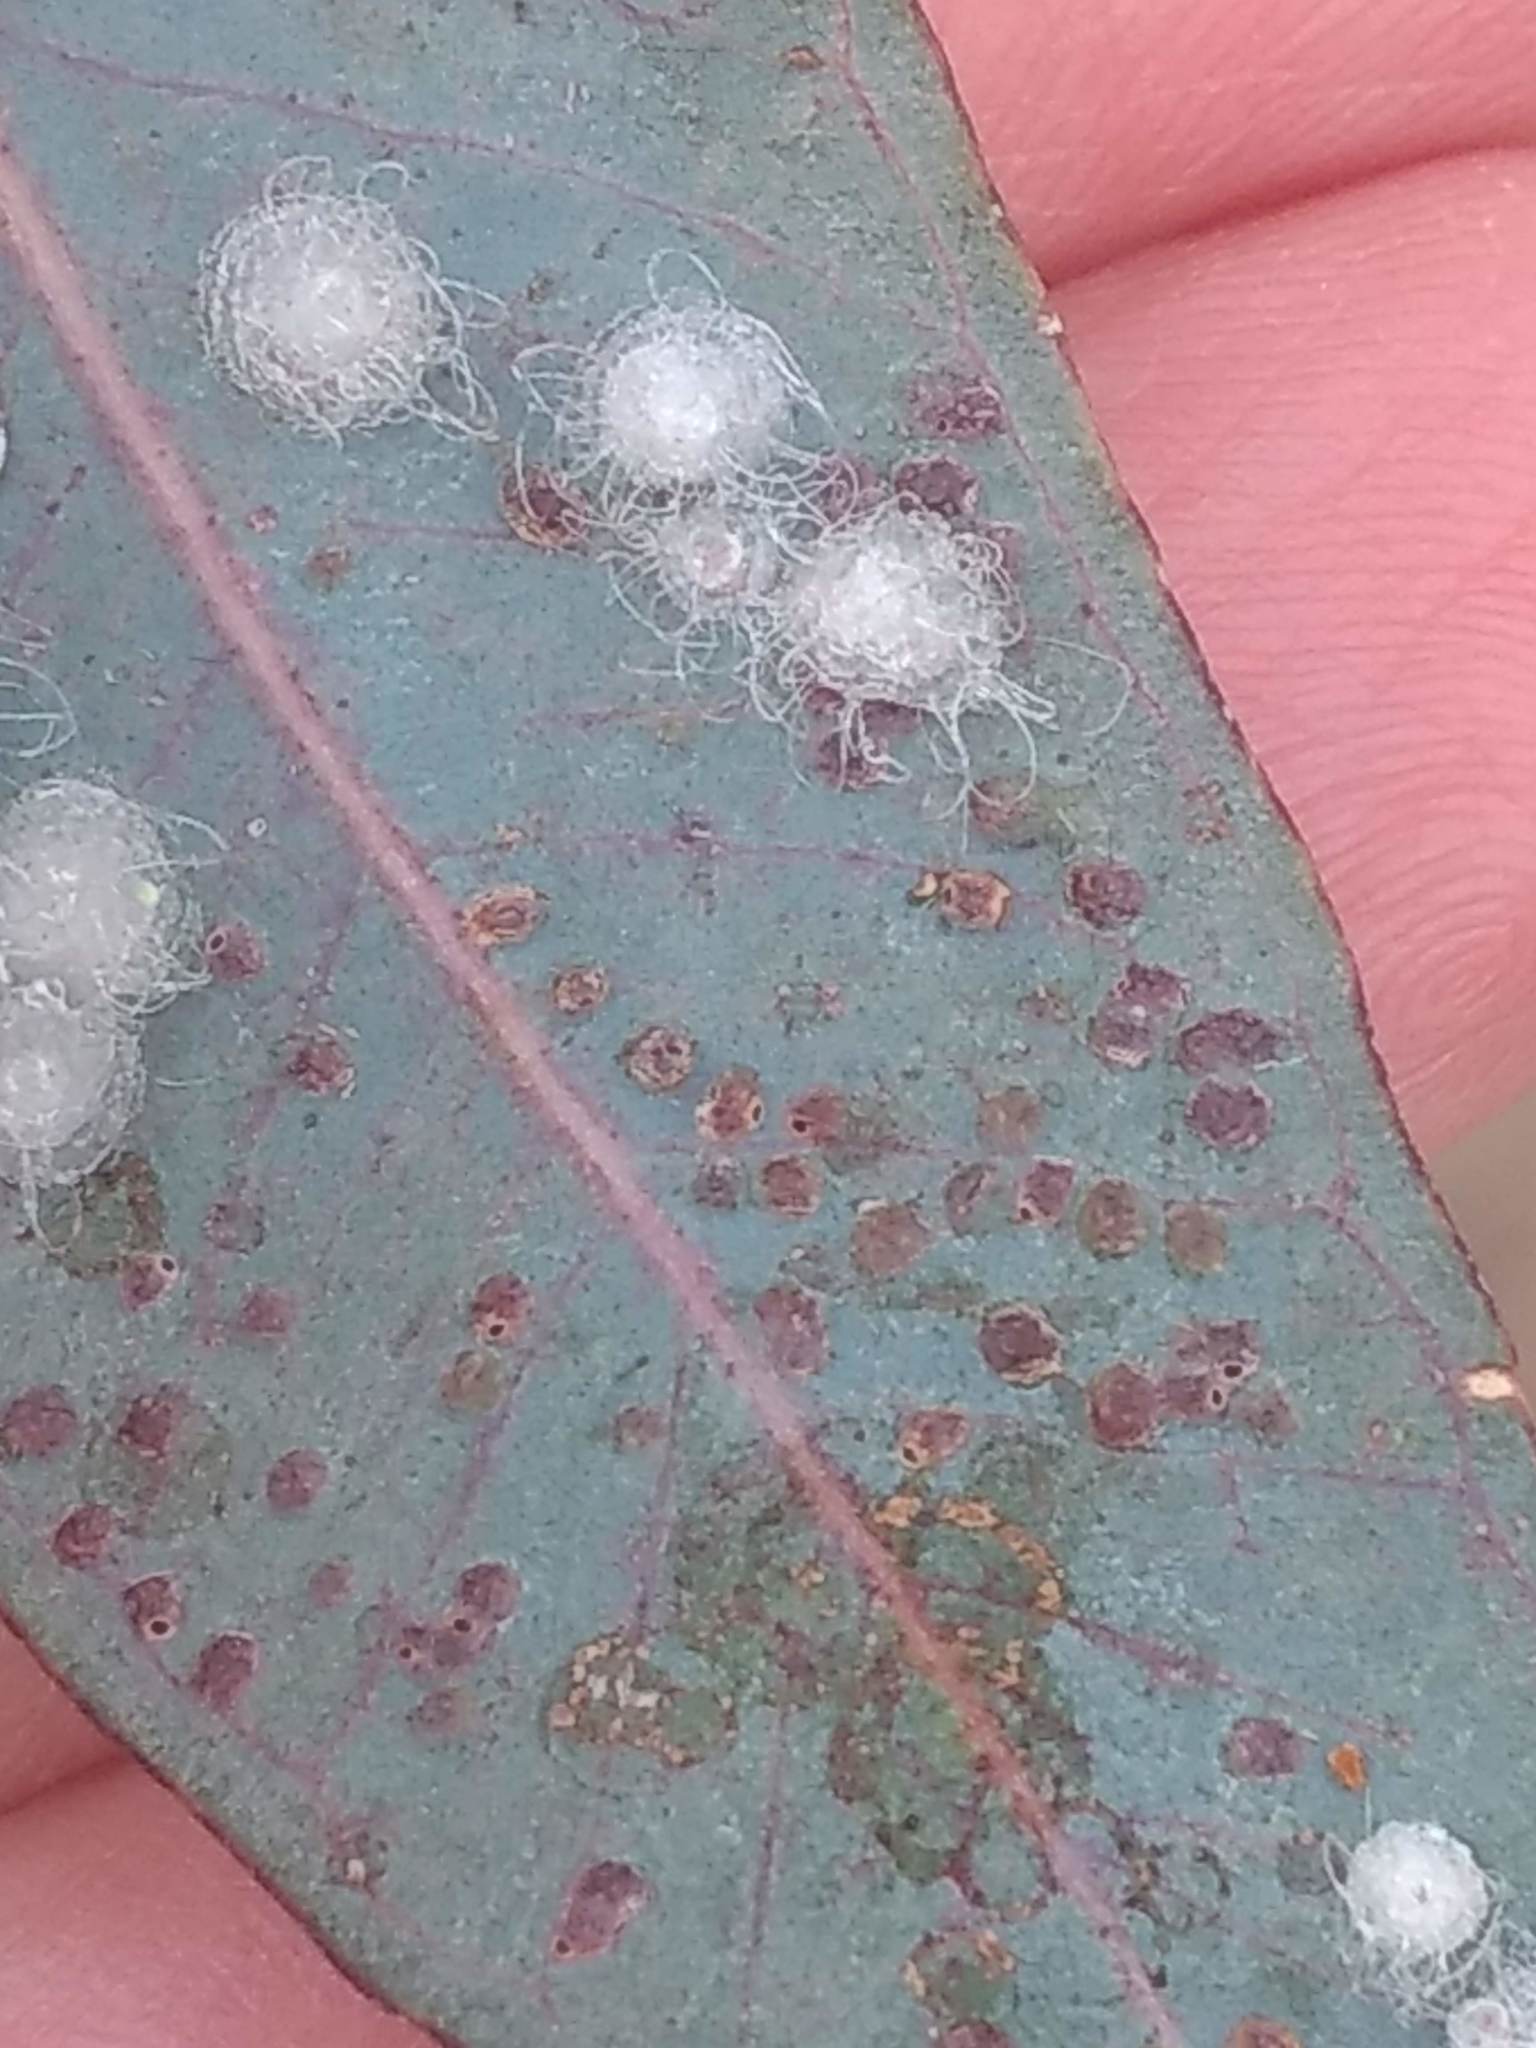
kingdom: Animalia
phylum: Arthropoda
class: Insecta
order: Hymenoptera
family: Eulophidae
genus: Ophelimus
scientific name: Ophelimus maskelli
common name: Gall wasp
